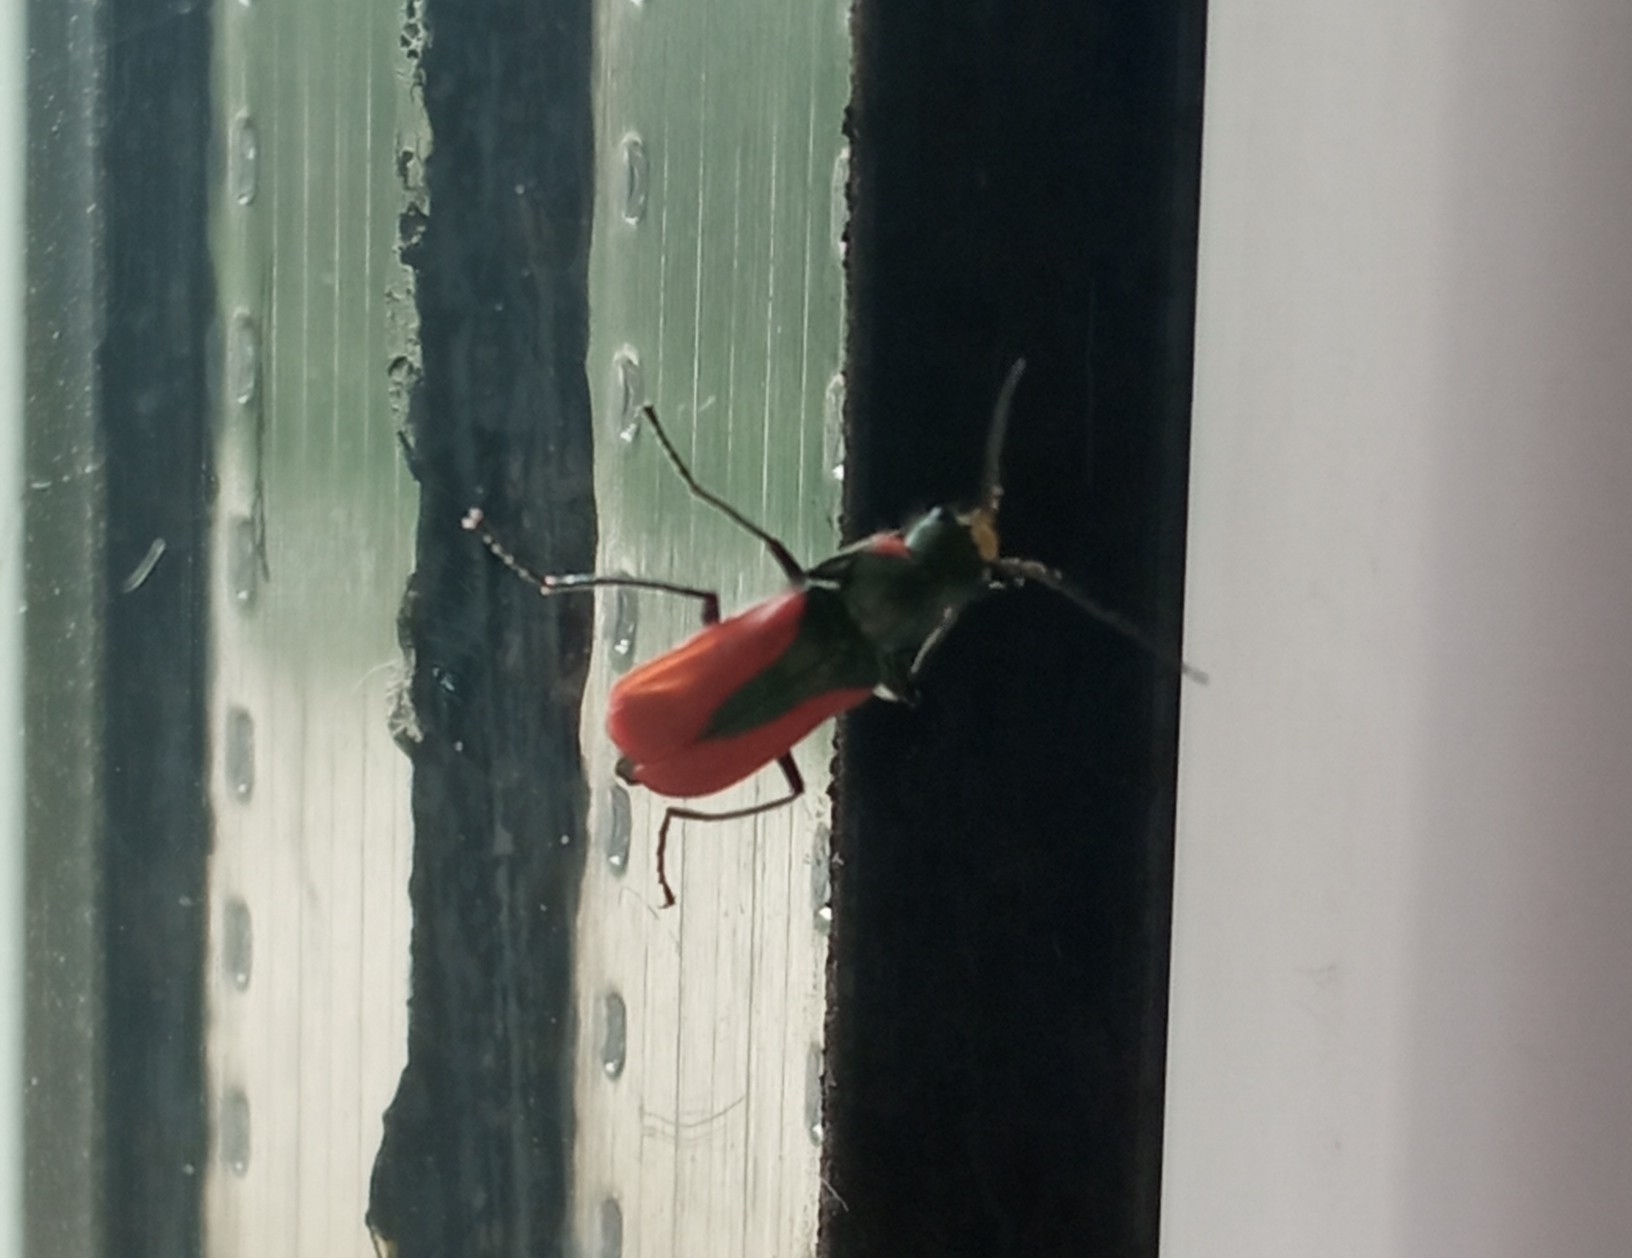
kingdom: Animalia
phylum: Arthropoda
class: Insecta
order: Coleoptera
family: Melyridae
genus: Malachius
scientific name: Malachius aeneus
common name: Scarlet malachite beetle
